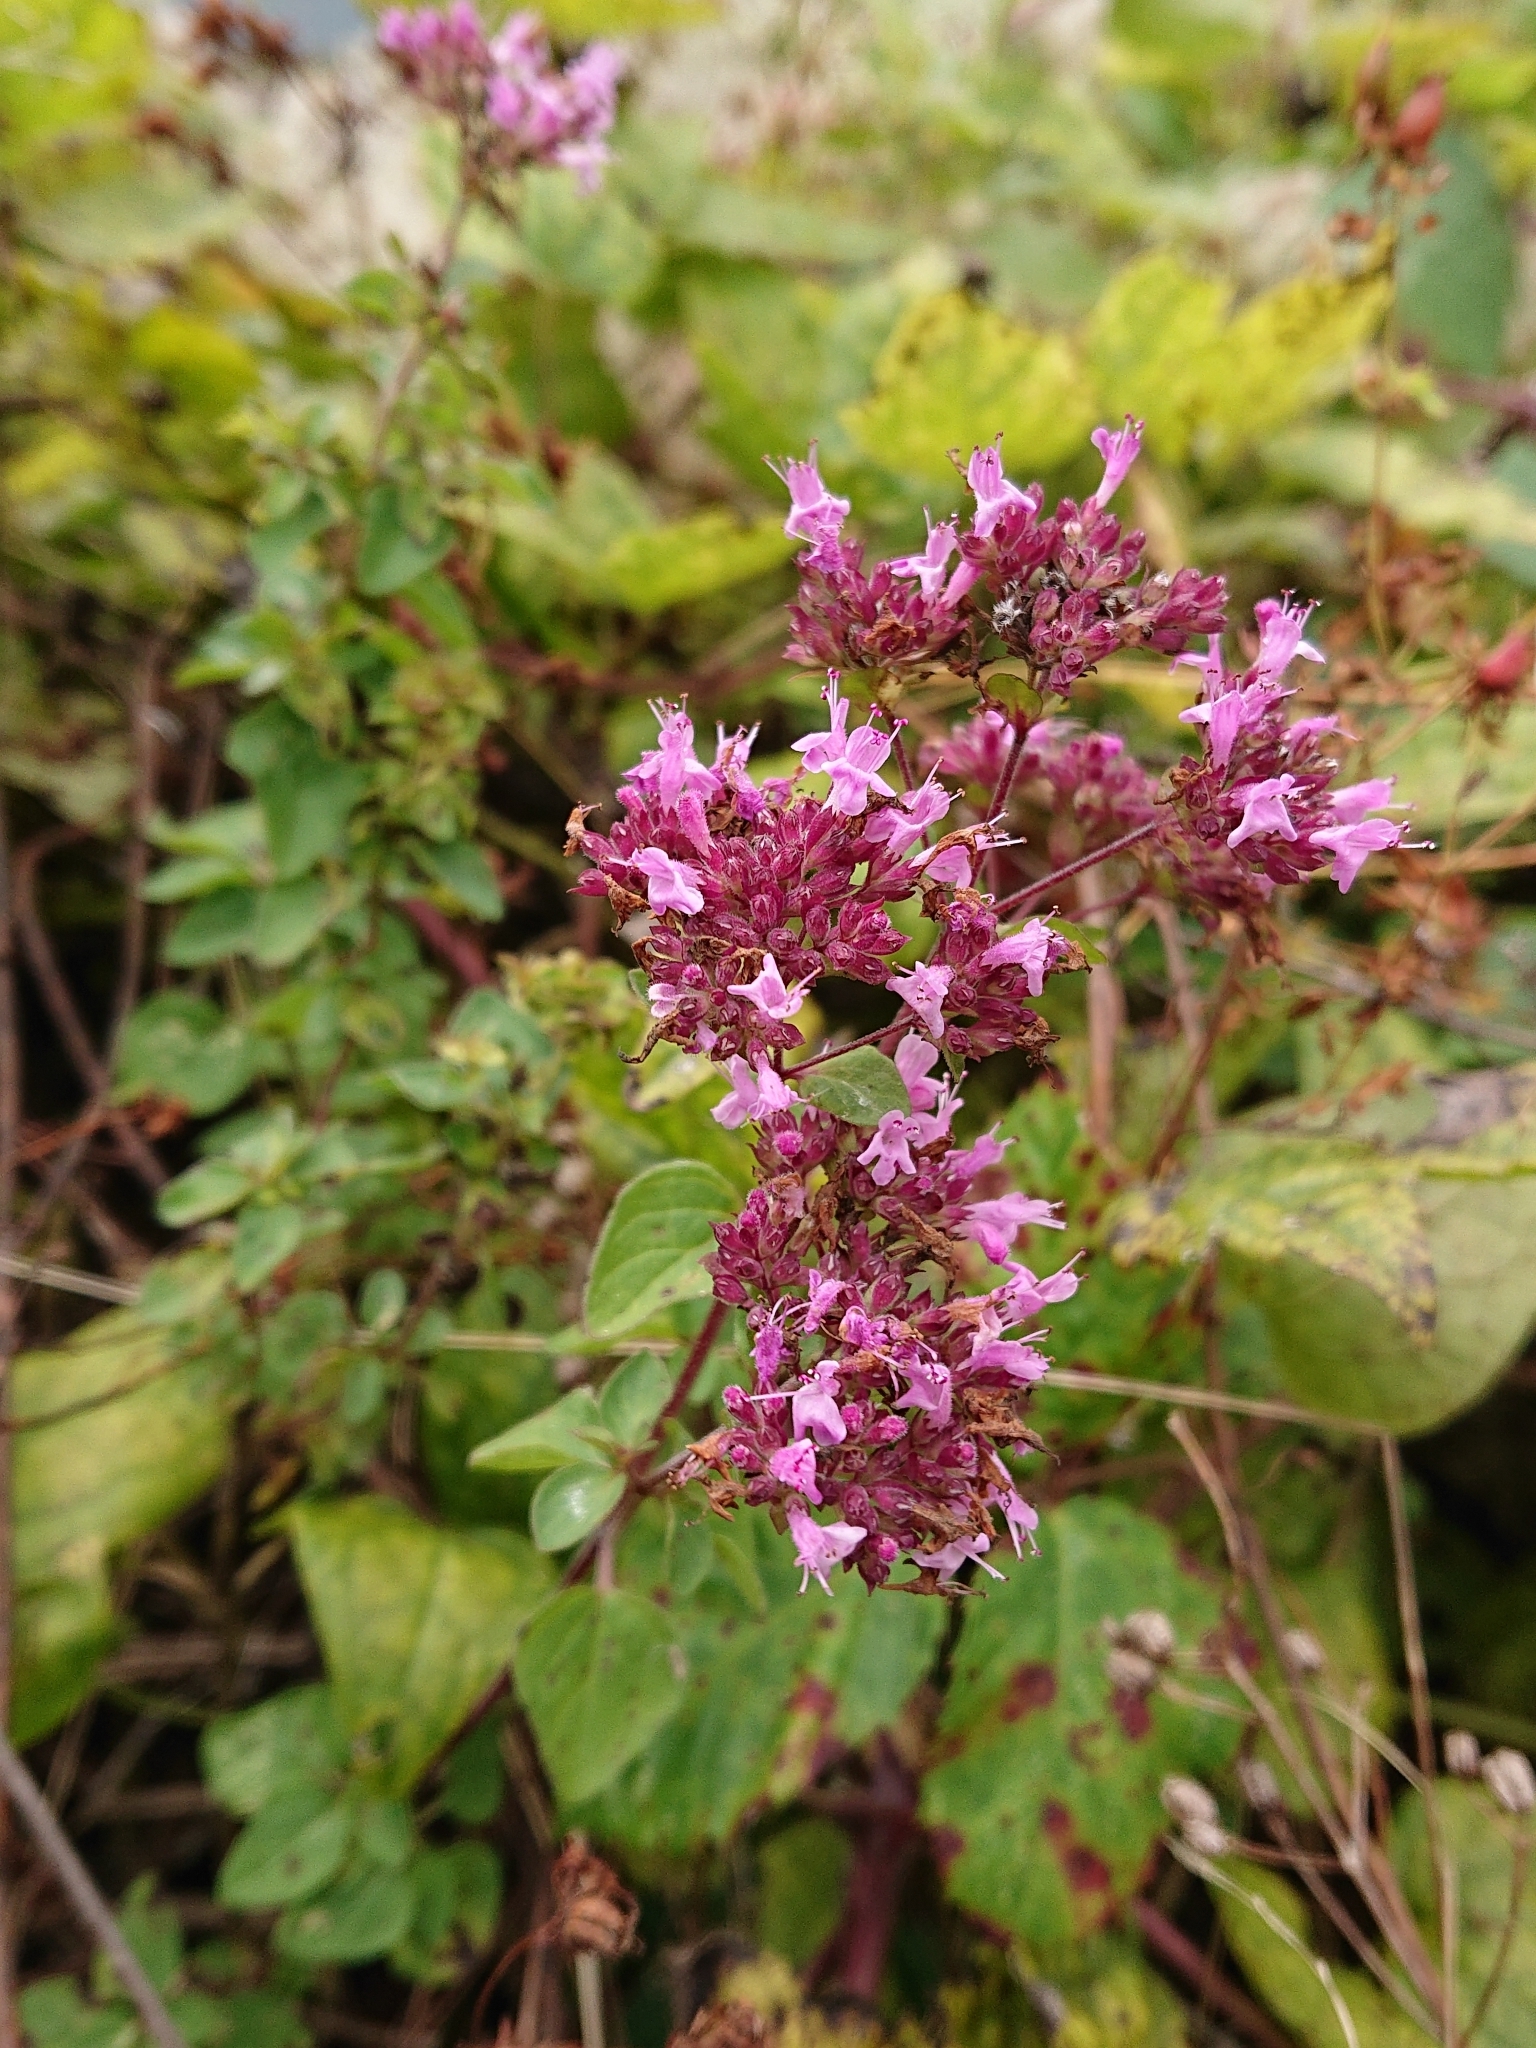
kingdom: Plantae
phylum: Tracheophyta
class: Magnoliopsida
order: Lamiales
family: Lamiaceae
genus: Origanum
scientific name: Origanum vulgare
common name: Wild marjoram
